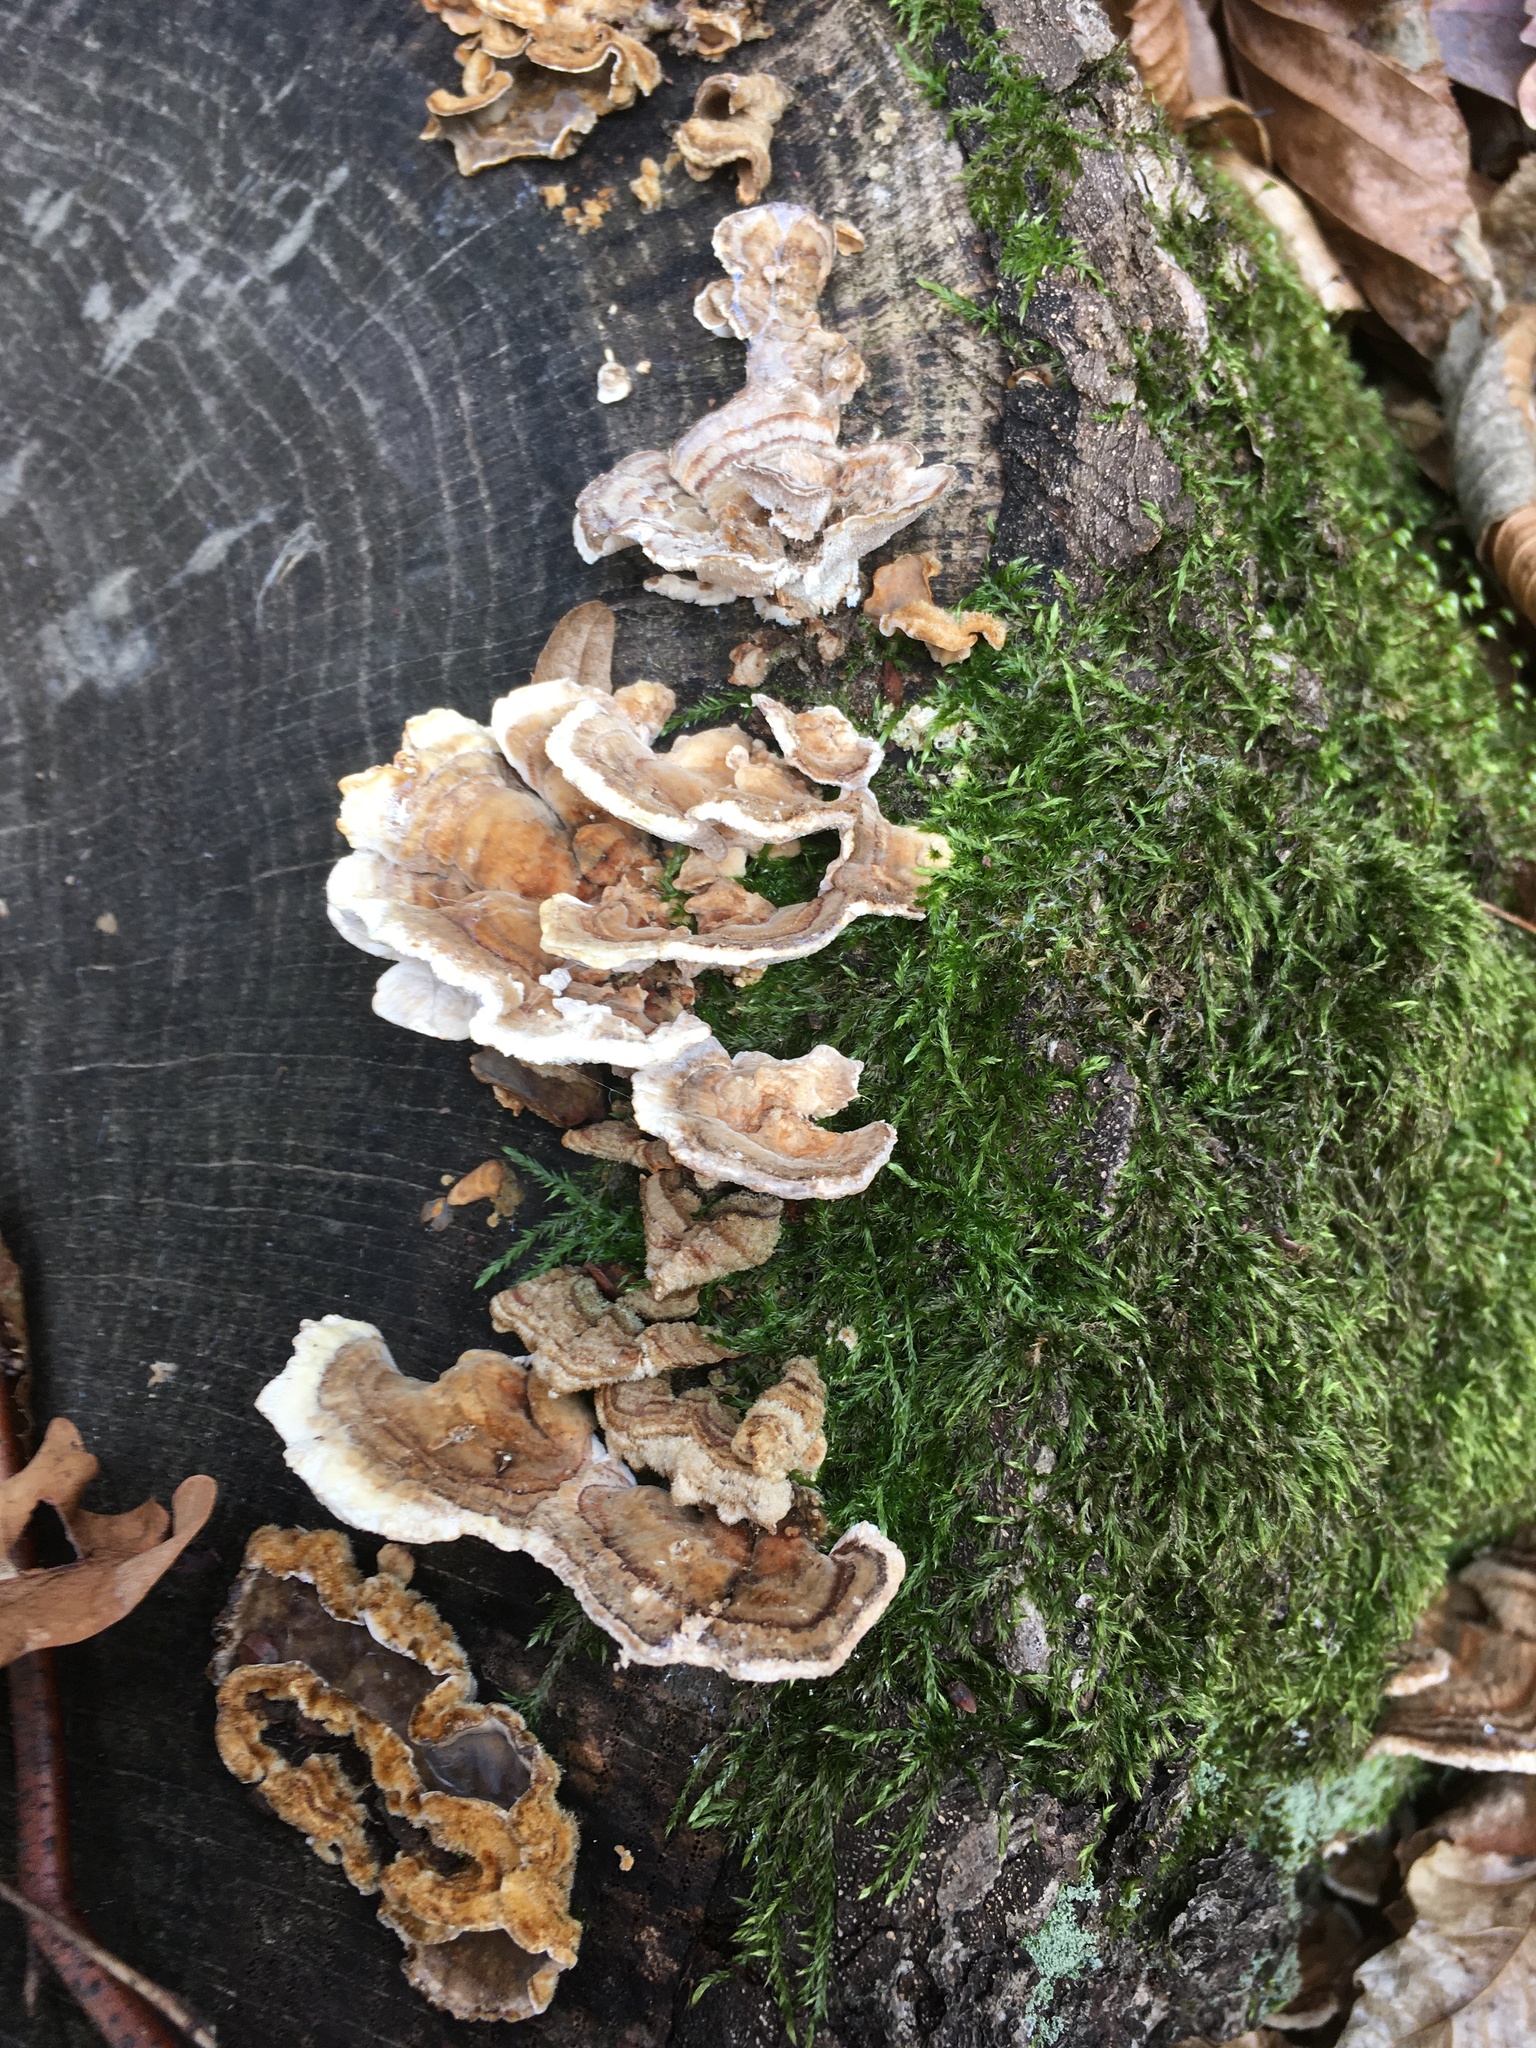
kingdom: Fungi
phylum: Basidiomycota
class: Agaricomycetes
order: Polyporales
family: Polyporaceae
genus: Trametes
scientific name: Trametes versicolor
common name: Turkeytail
